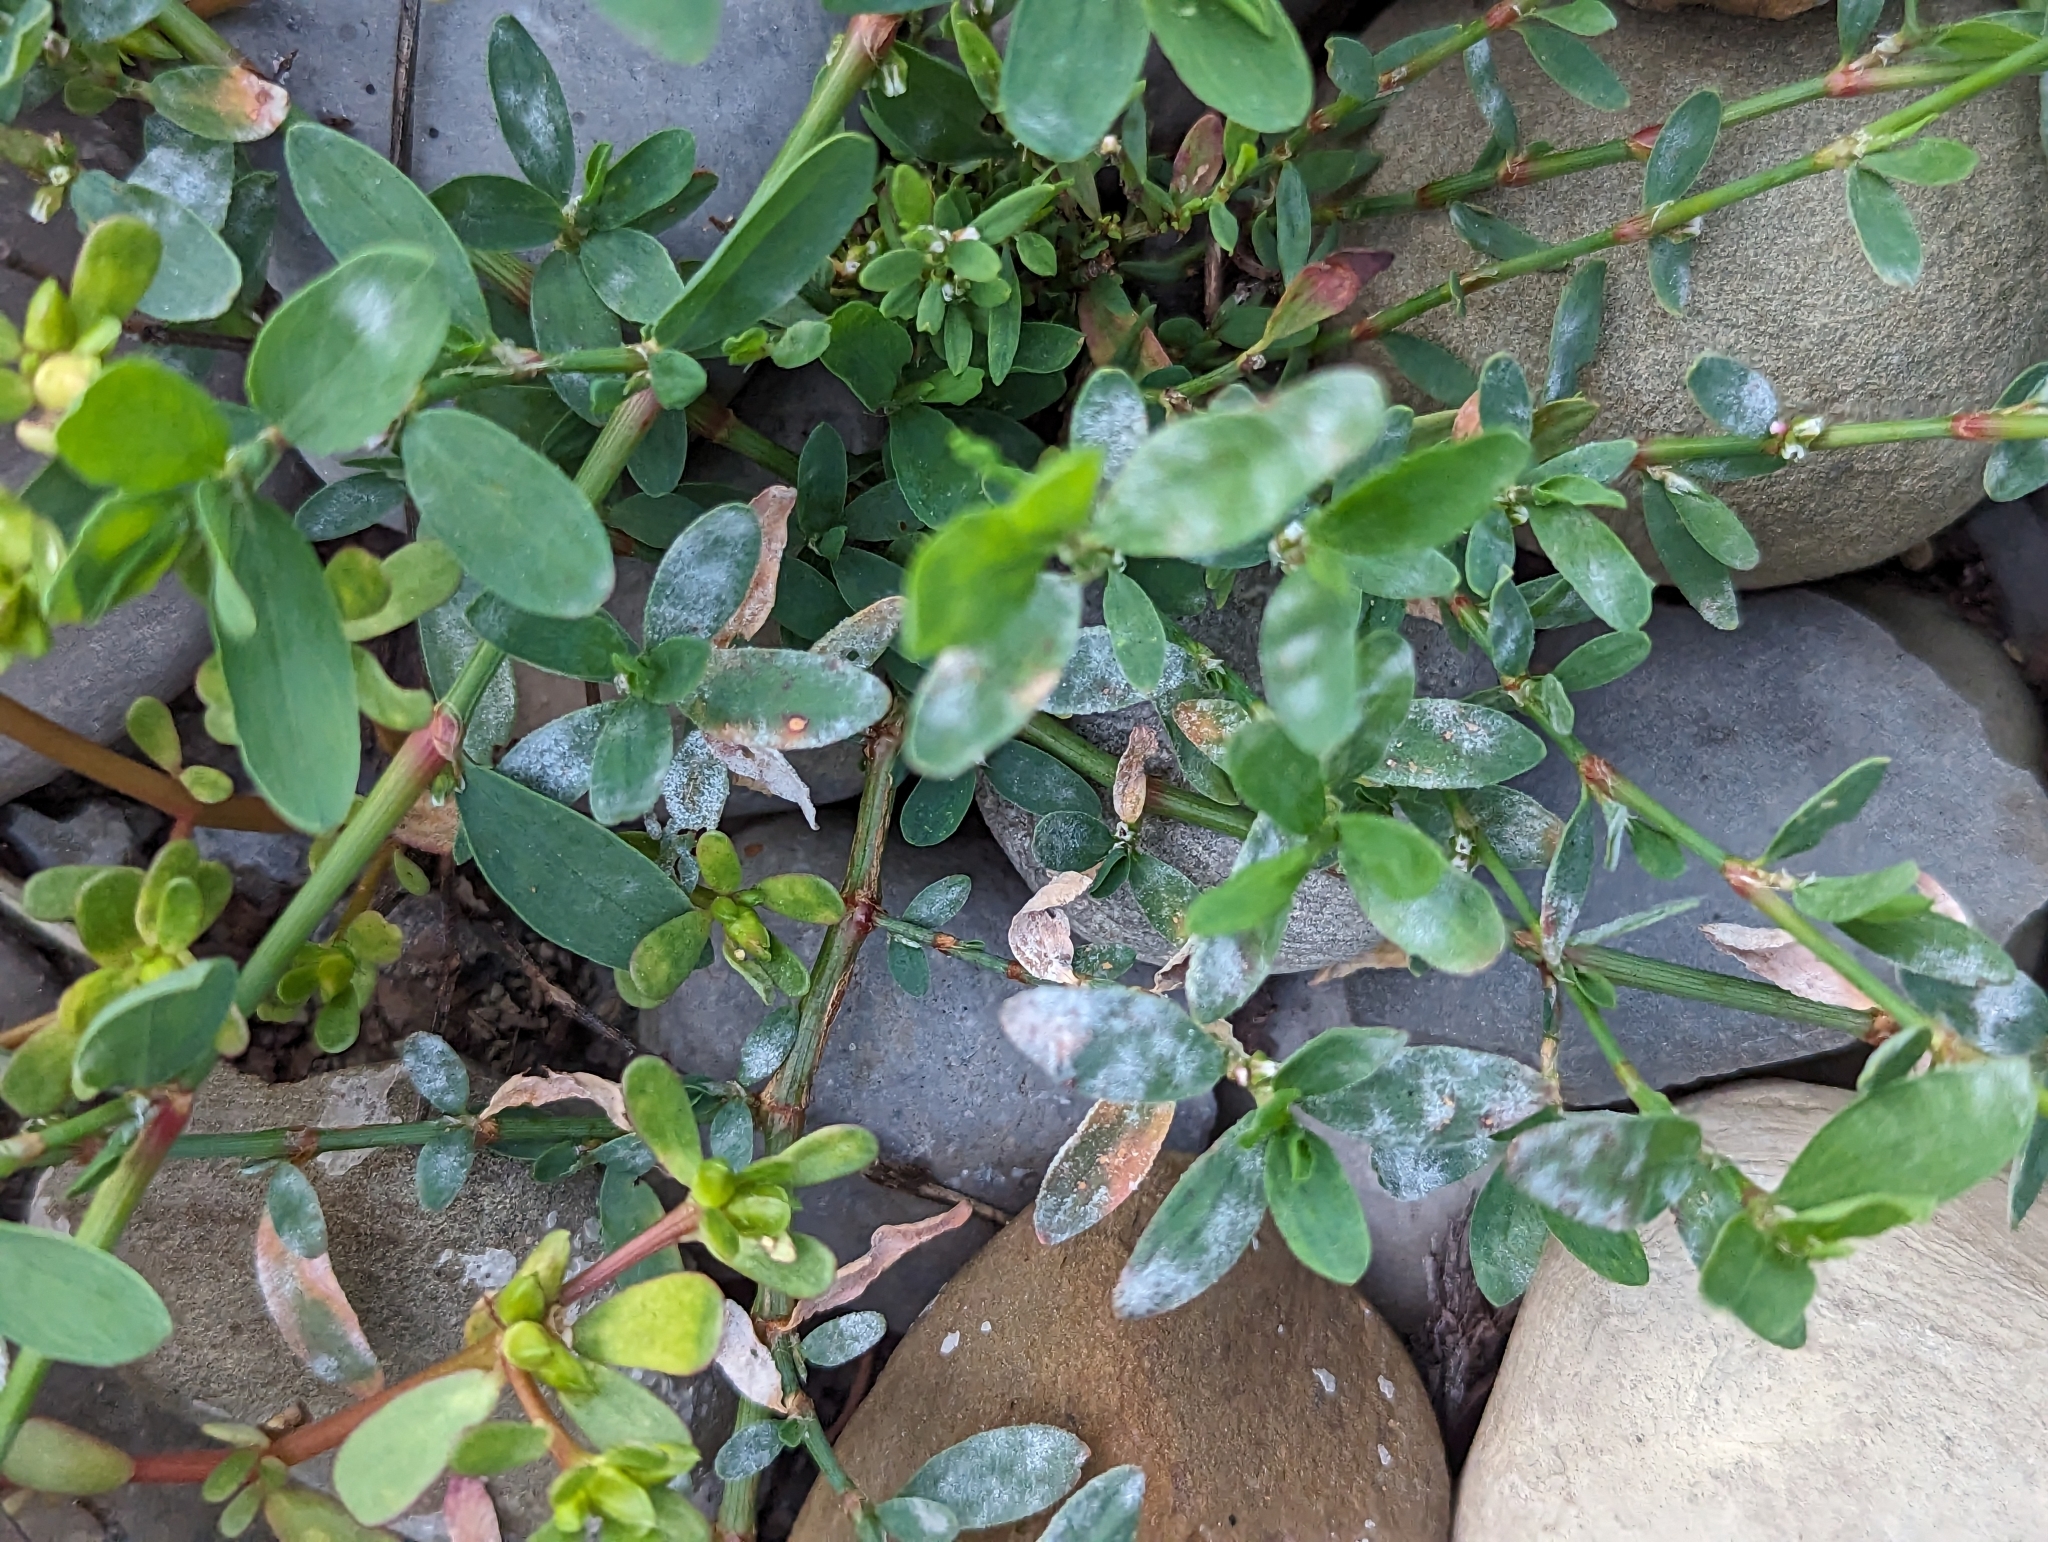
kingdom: Fungi
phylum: Ascomycota
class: Leotiomycetes
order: Helotiales
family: Erysiphaceae
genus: Erysiphe
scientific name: Erysiphe polygoni
